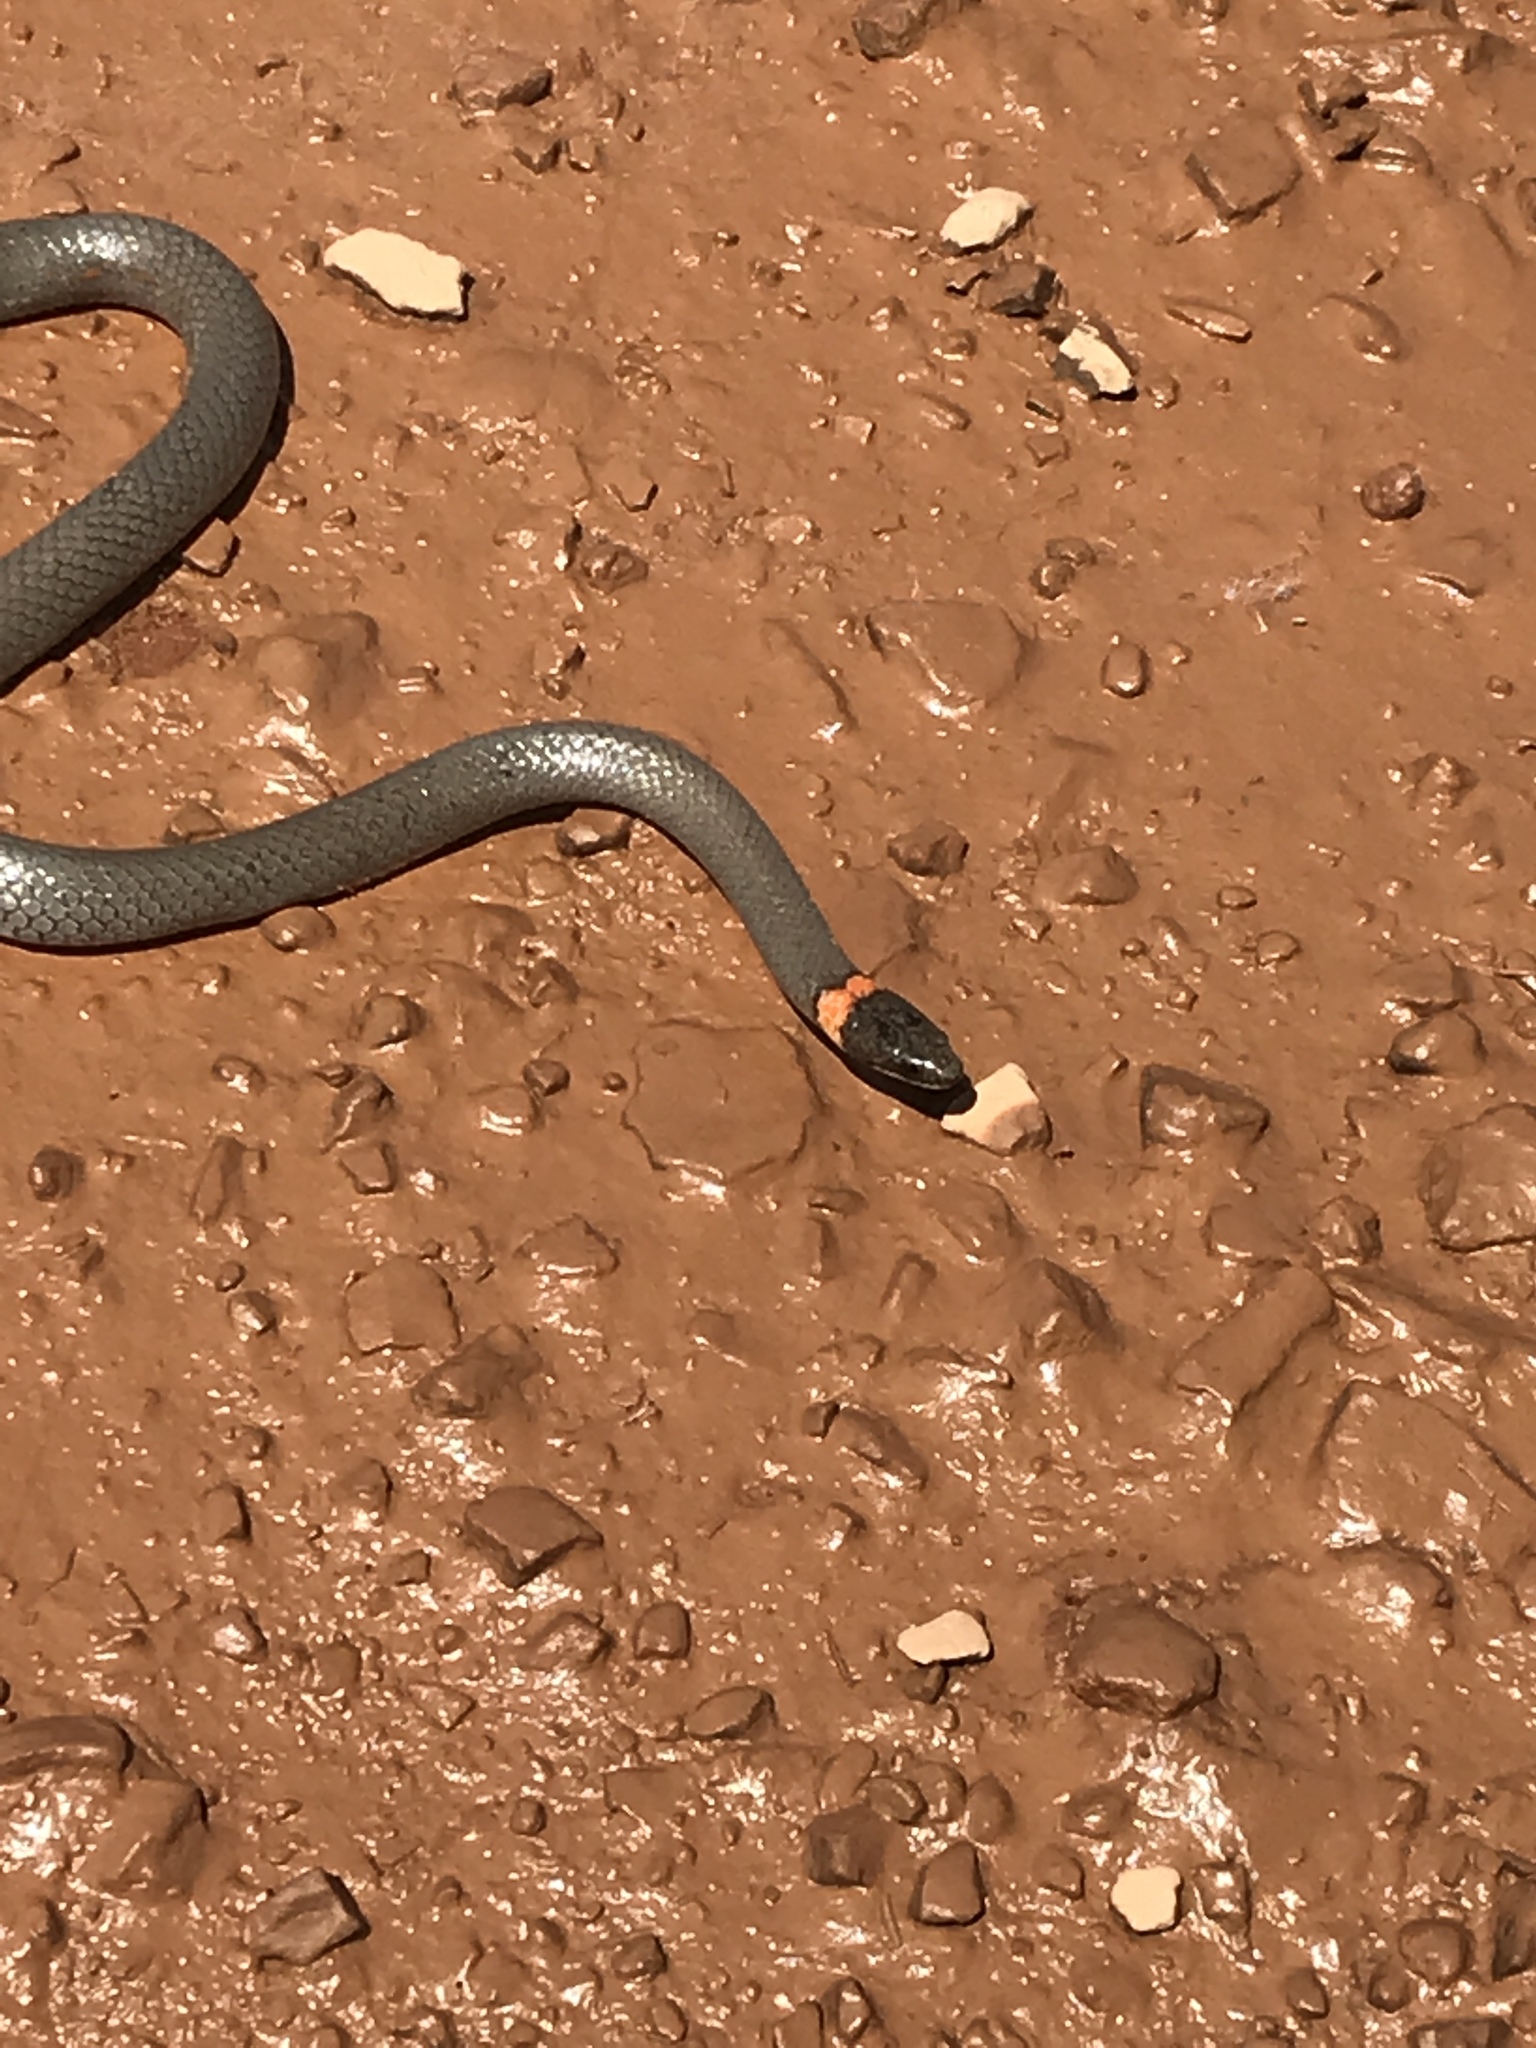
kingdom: Animalia
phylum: Chordata
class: Squamata
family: Colubridae
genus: Diadophis
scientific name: Diadophis punctatus
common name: Ringneck snake
